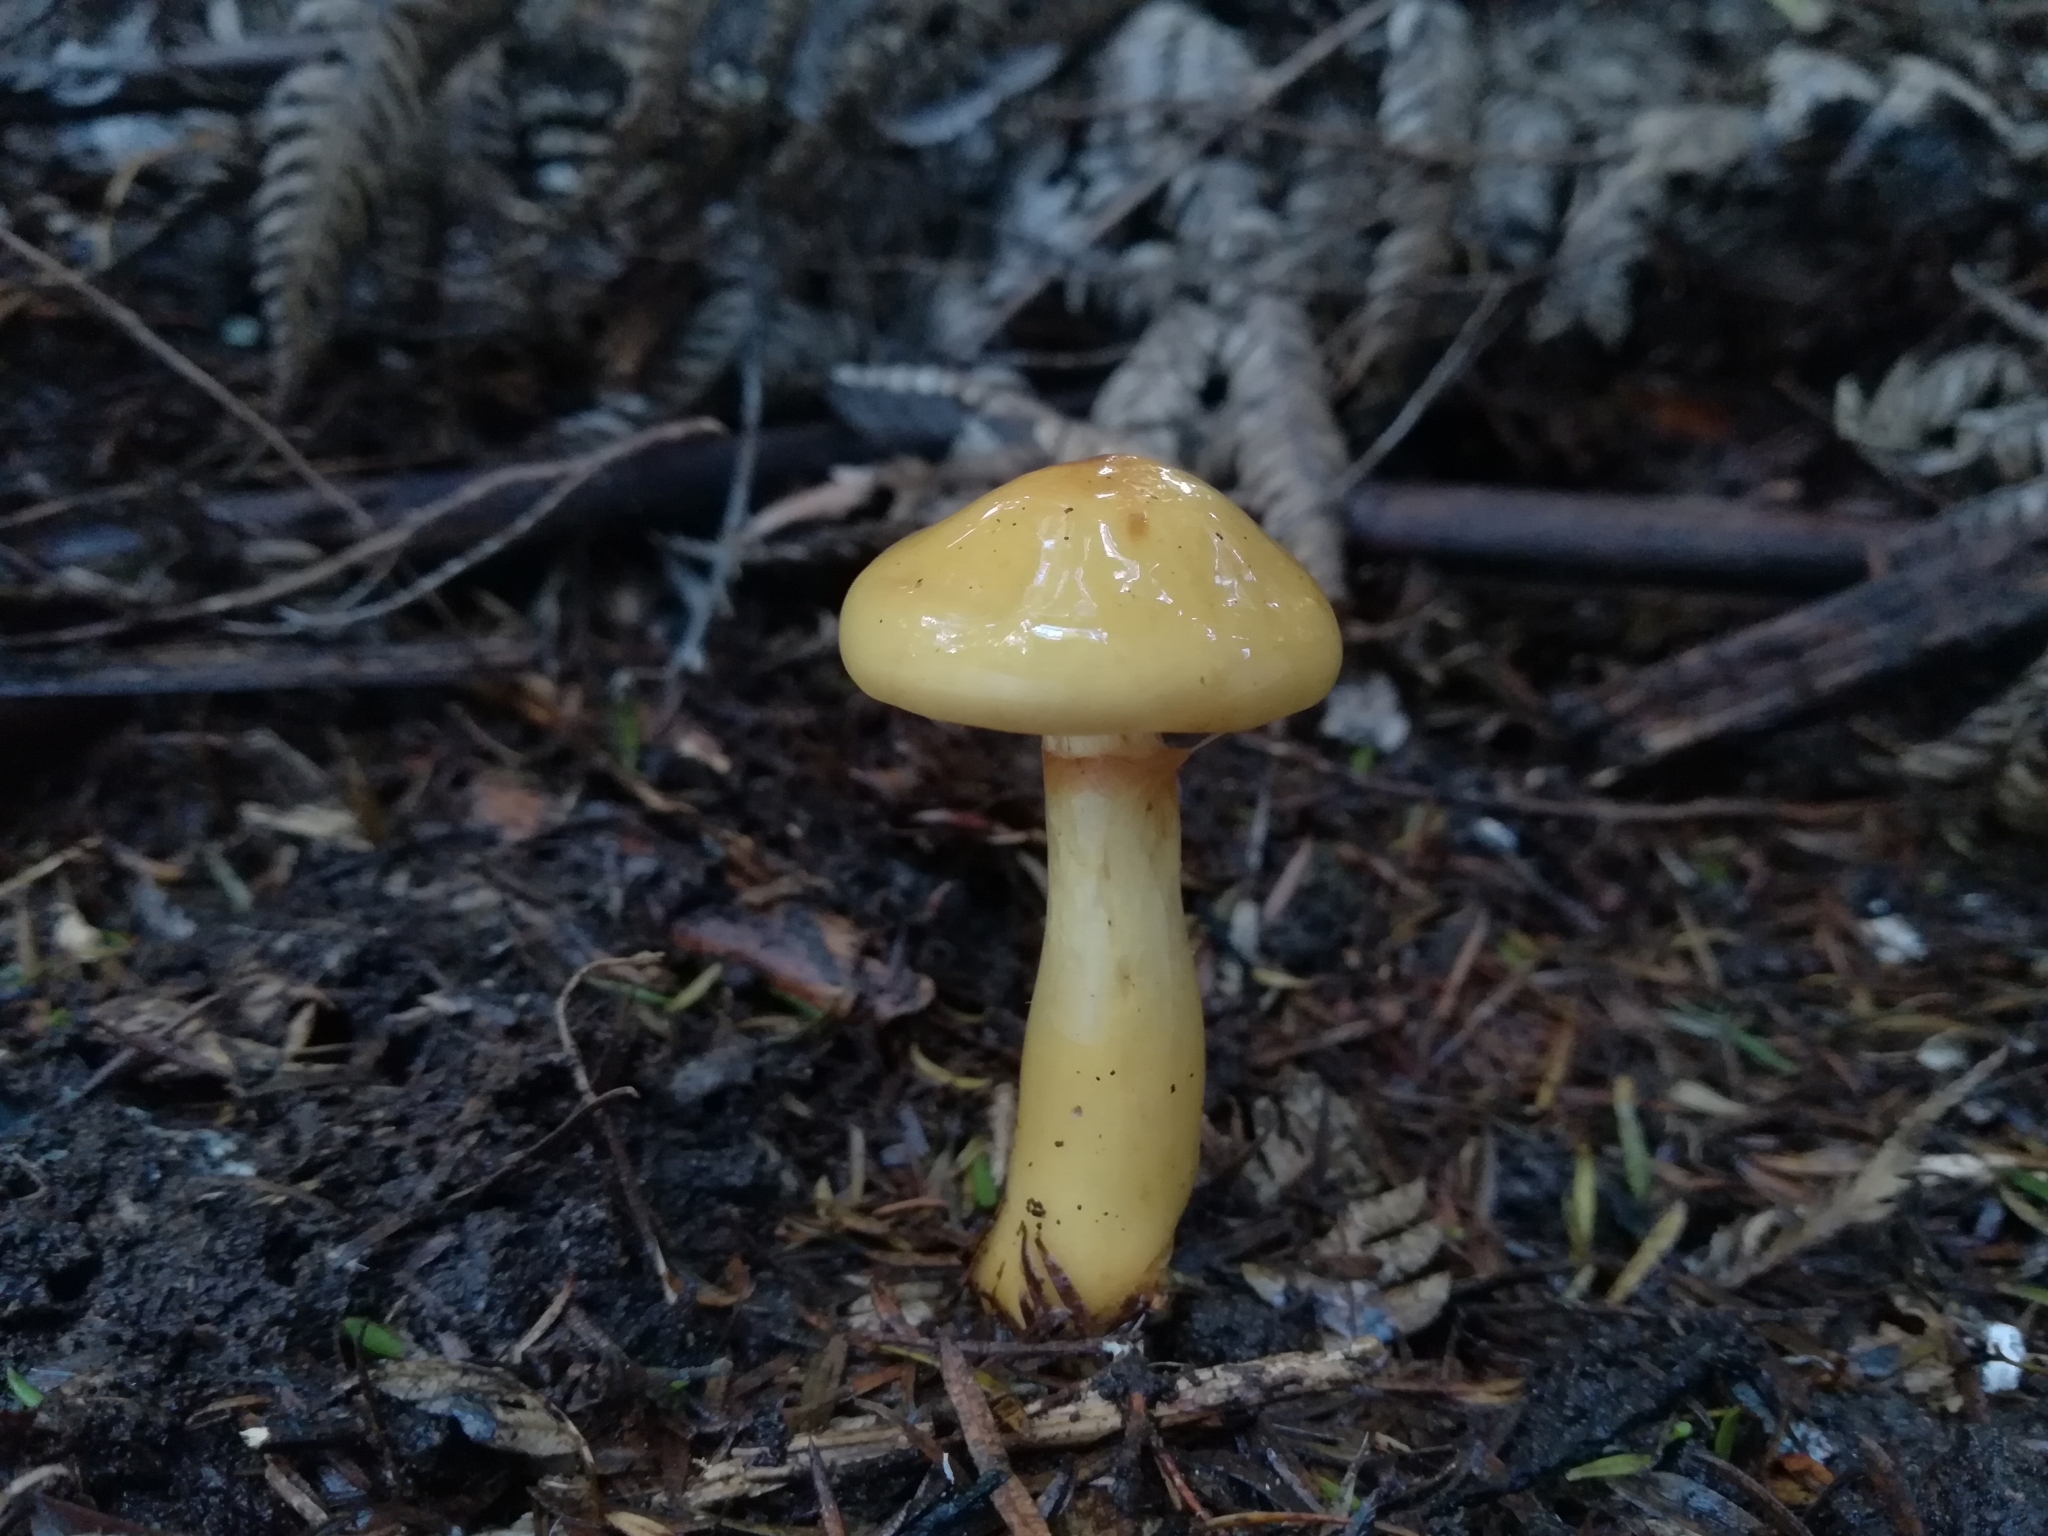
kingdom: Fungi
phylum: Basidiomycota
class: Agaricomycetes
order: Agaricales
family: Cortinariaceae
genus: Cortinarius
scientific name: Cortinarius ignotus
